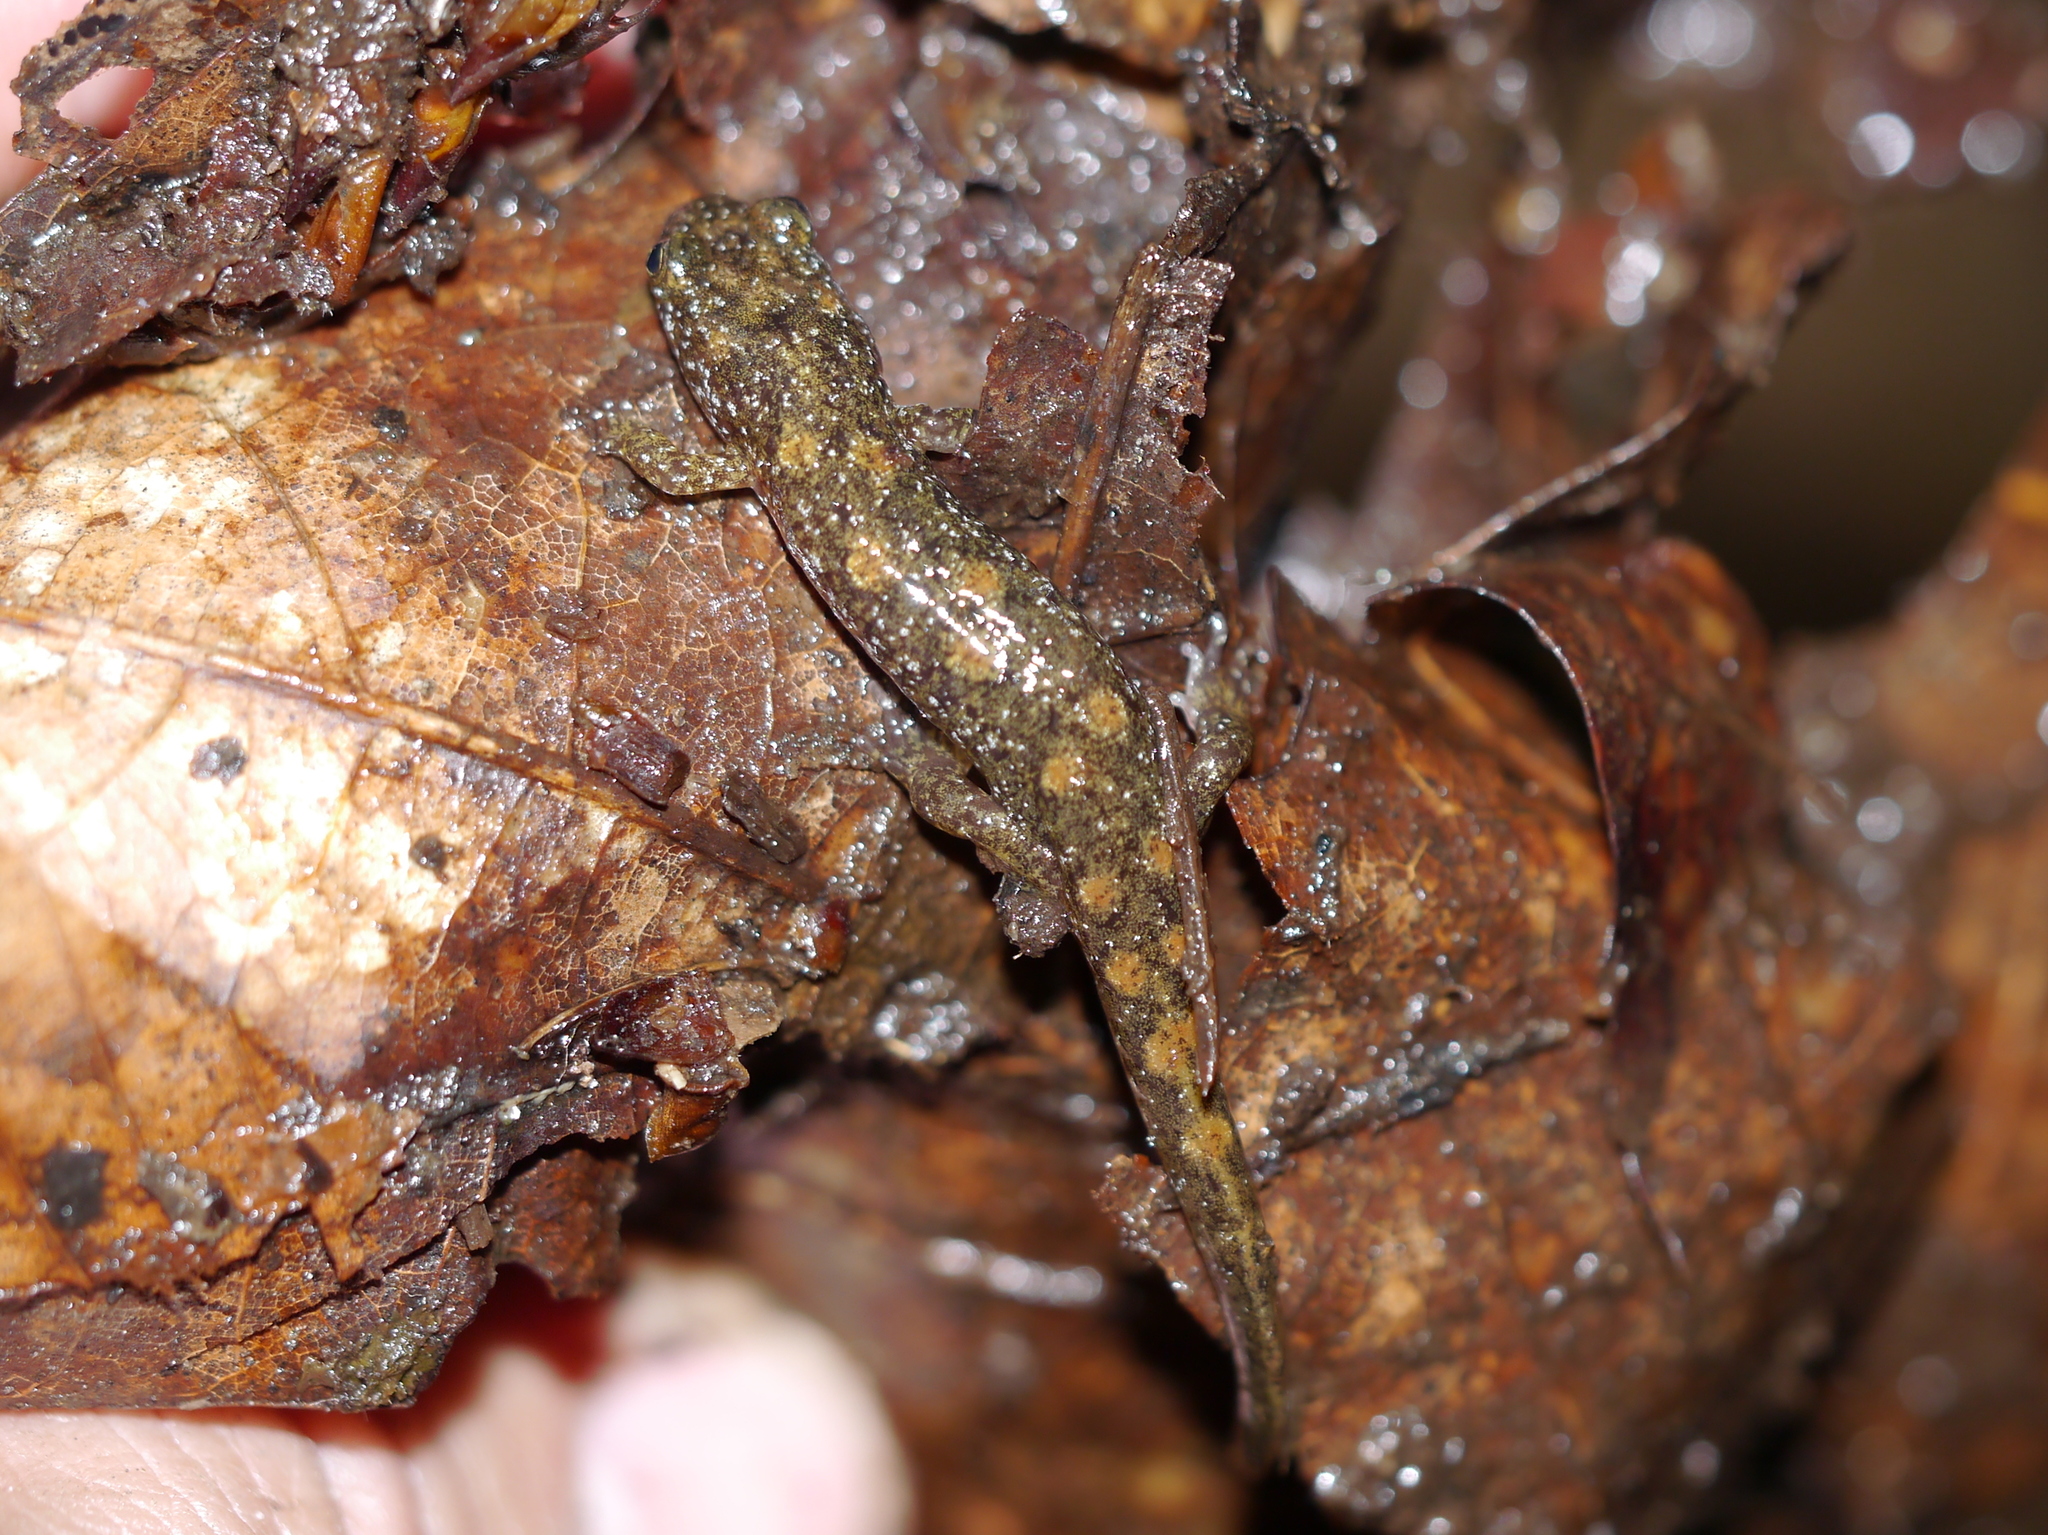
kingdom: Animalia
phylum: Chordata
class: Amphibia
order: Caudata
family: Plethodontidae
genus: Desmognathus
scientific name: Desmognathus monticola
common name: Seal salamander
